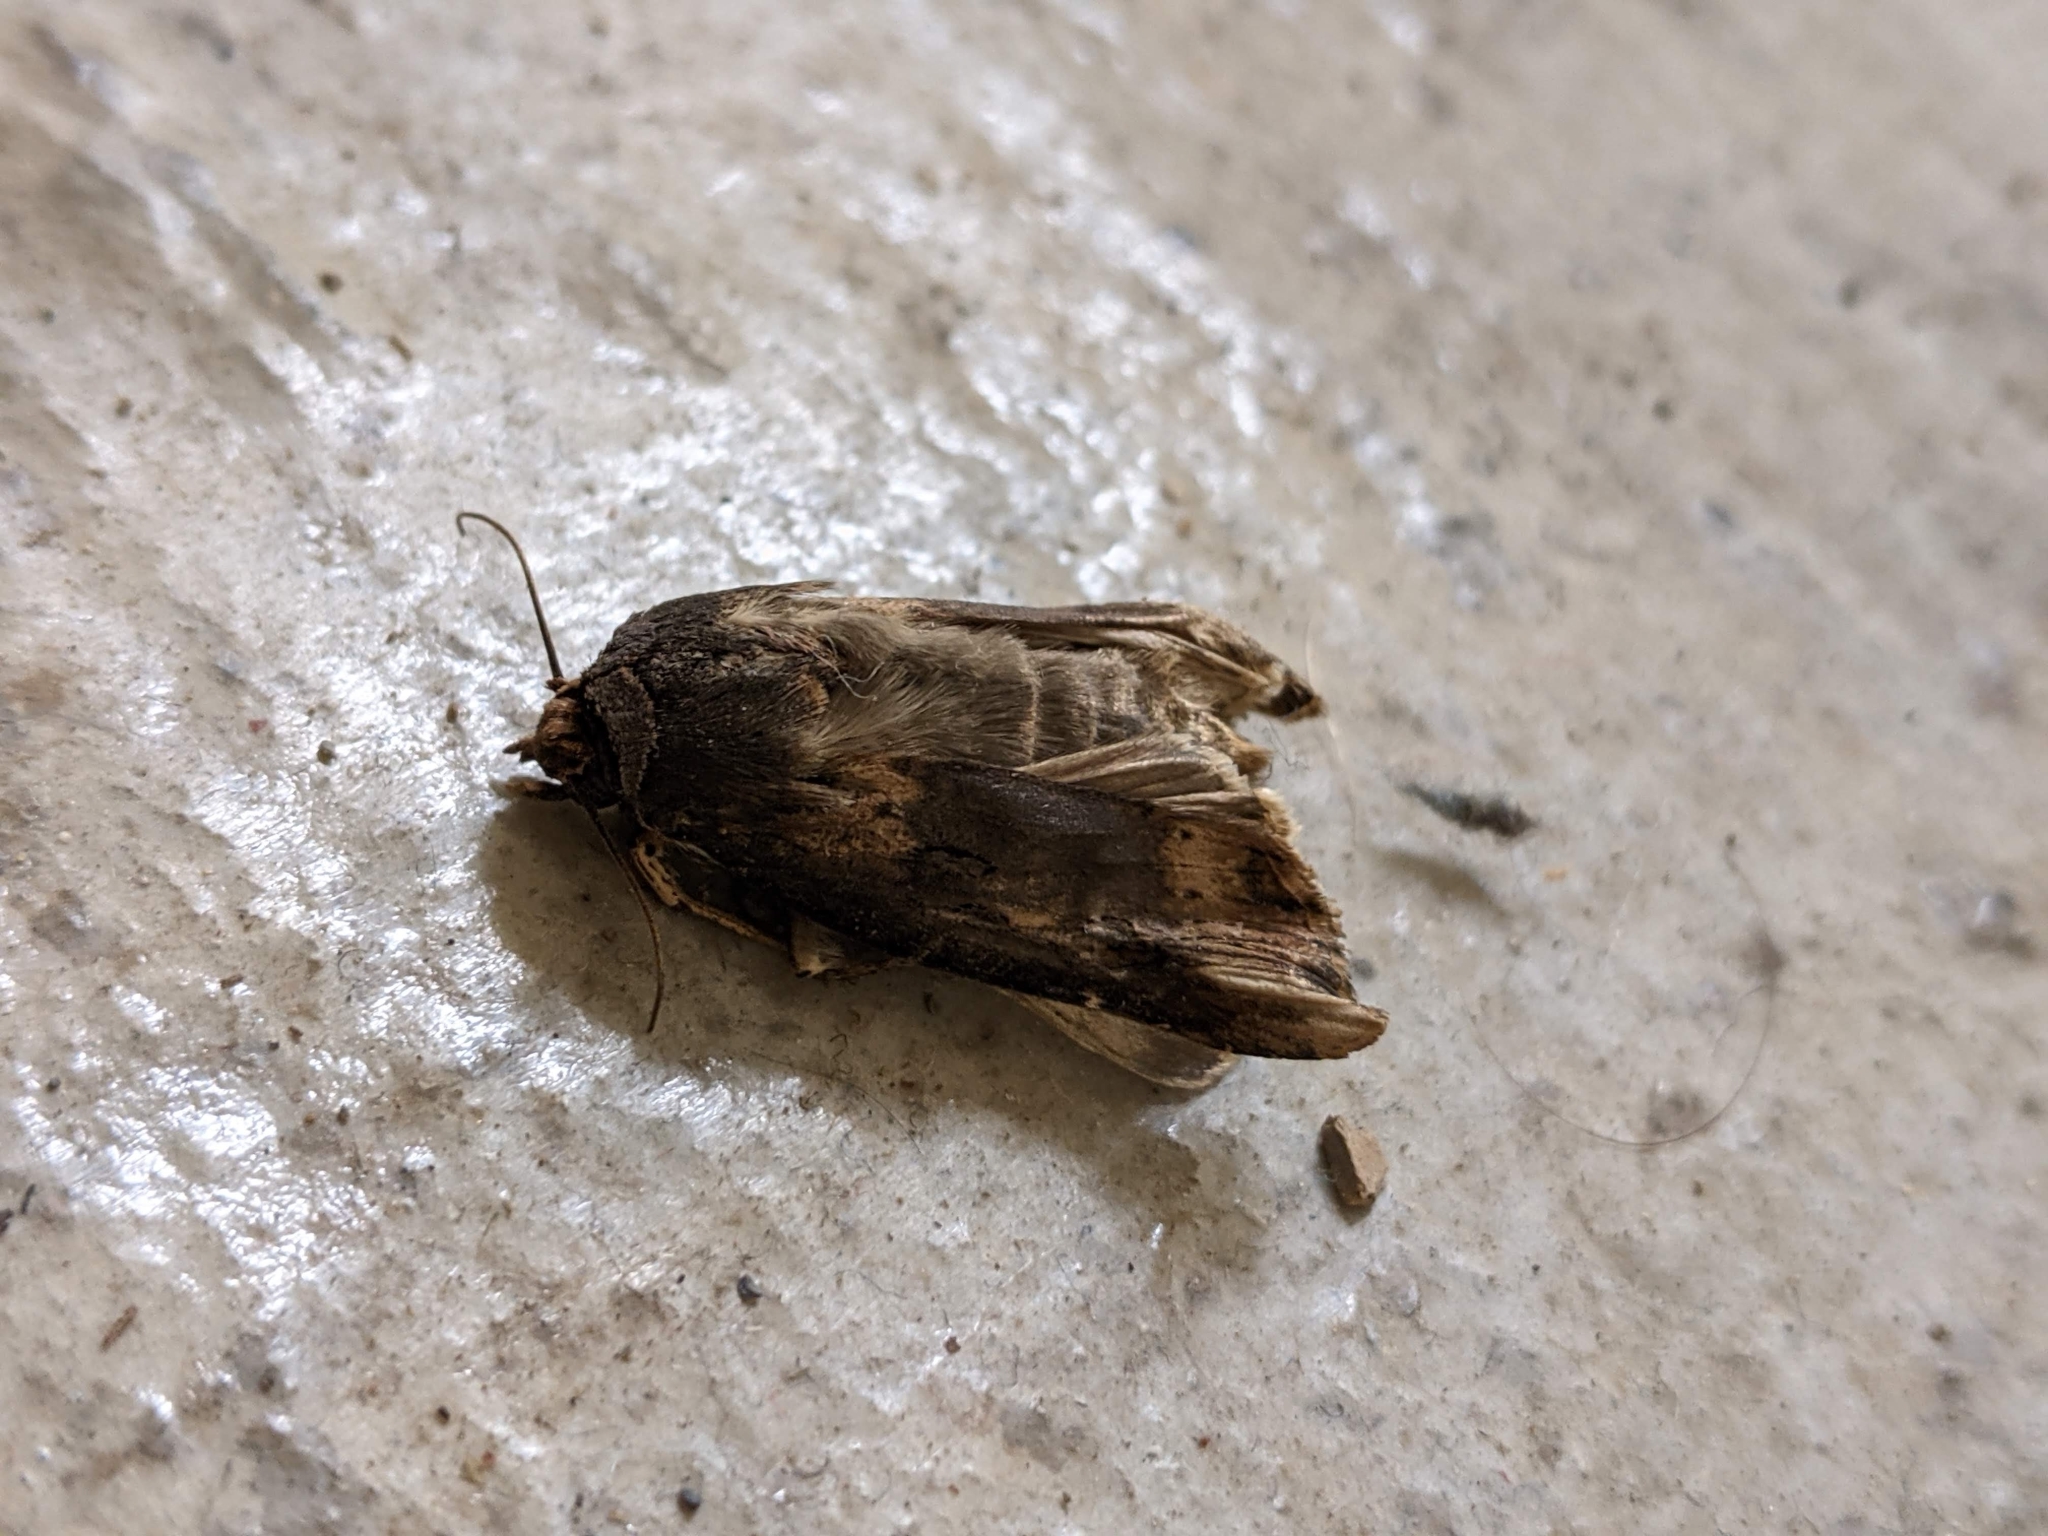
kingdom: Animalia
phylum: Arthropoda
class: Insecta
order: Lepidoptera
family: Noctuidae
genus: Agrotis
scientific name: Agrotis ipsilon
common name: Dark sword-grass
